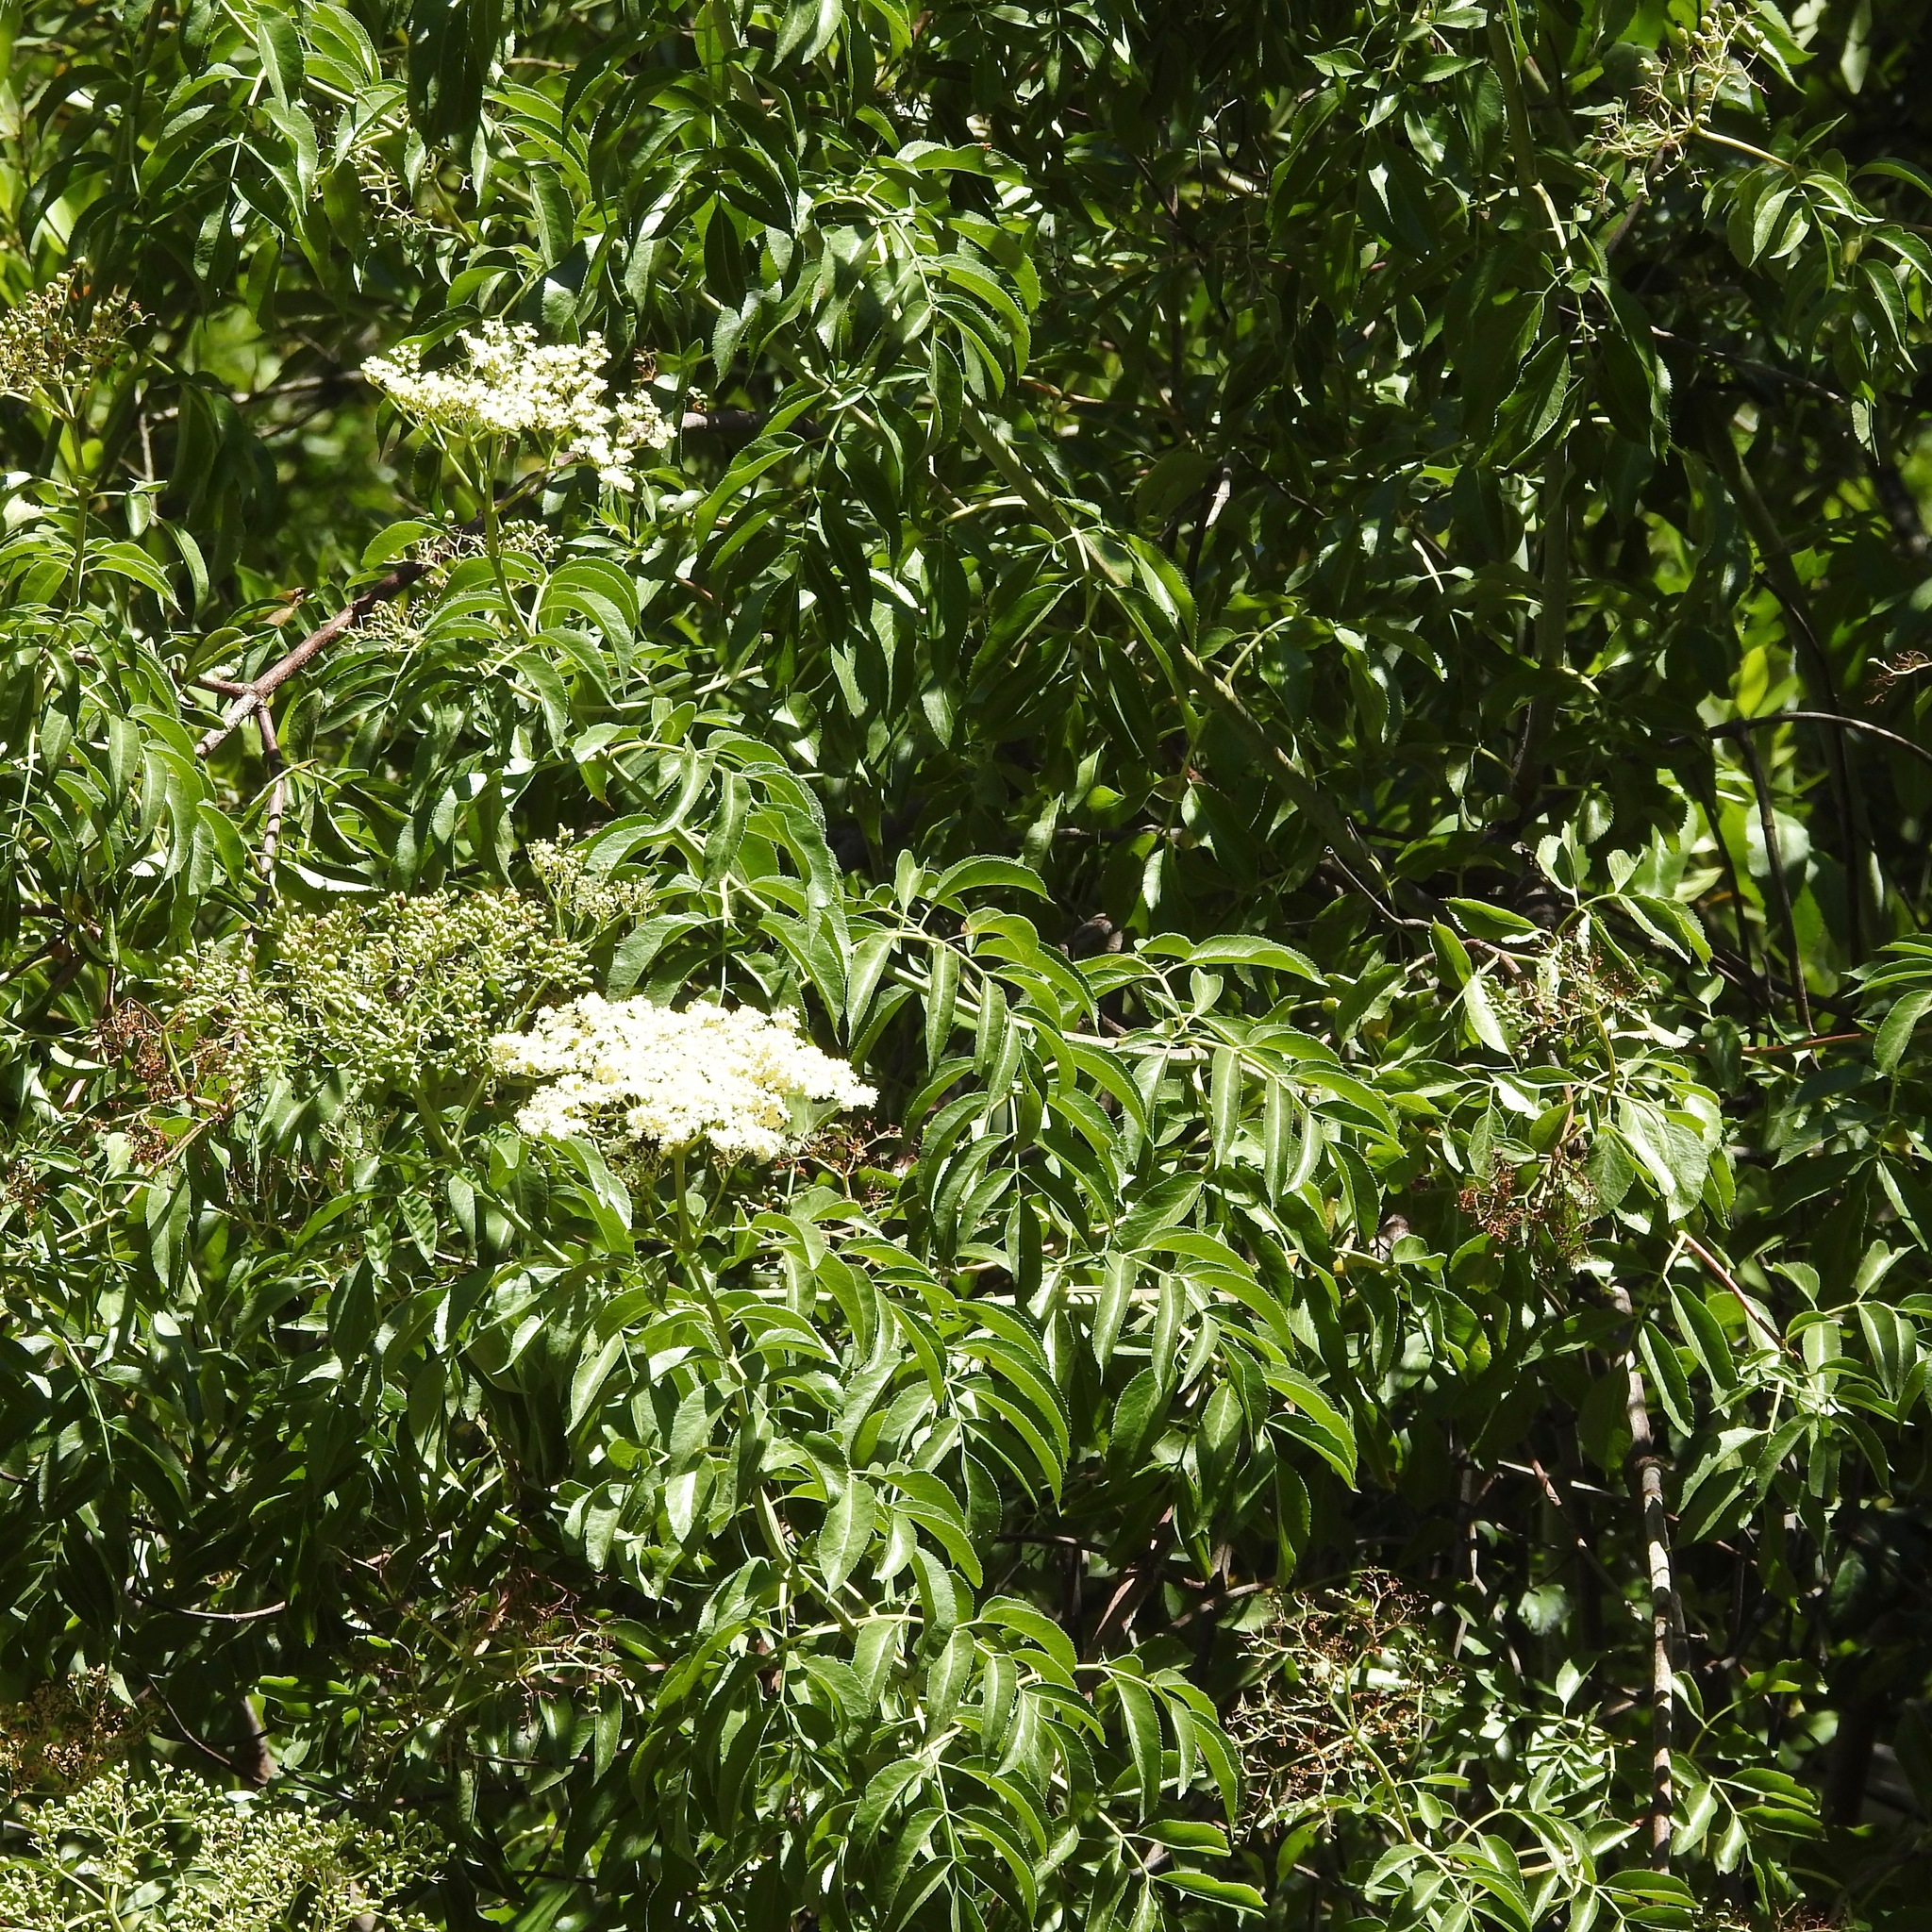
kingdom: Plantae
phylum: Tracheophyta
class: Magnoliopsida
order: Dipsacales
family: Viburnaceae
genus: Sambucus
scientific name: Sambucus cerulea
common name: Blue elder
